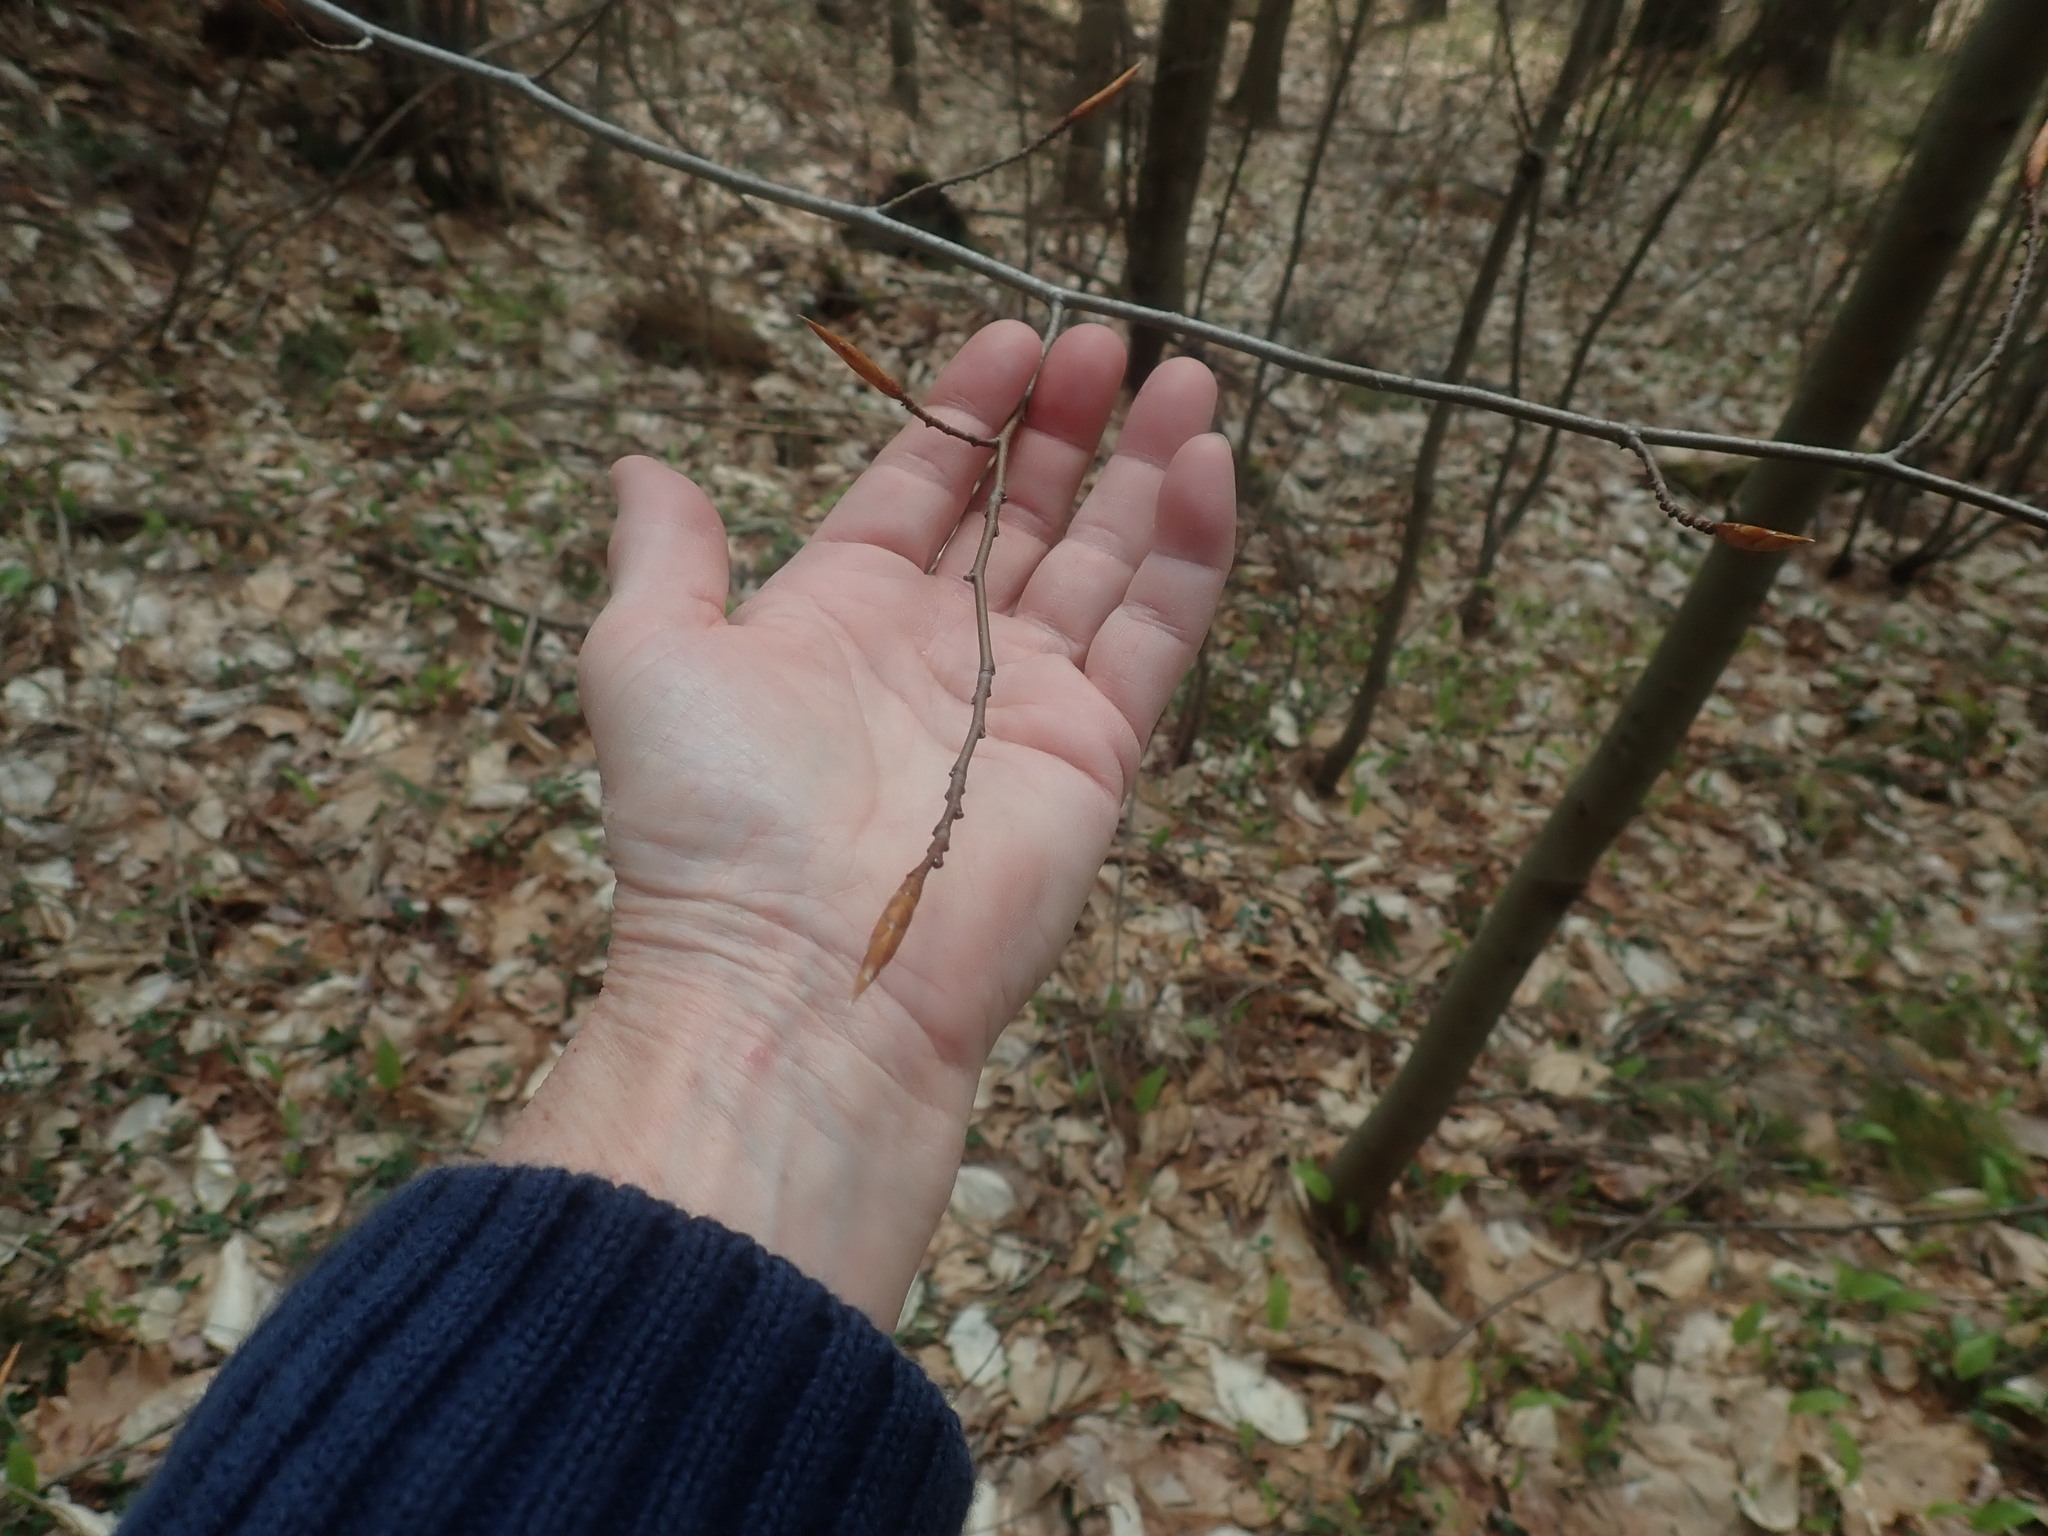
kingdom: Plantae
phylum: Tracheophyta
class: Magnoliopsida
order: Fagales
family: Fagaceae
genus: Fagus
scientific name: Fagus grandifolia
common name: American beech
